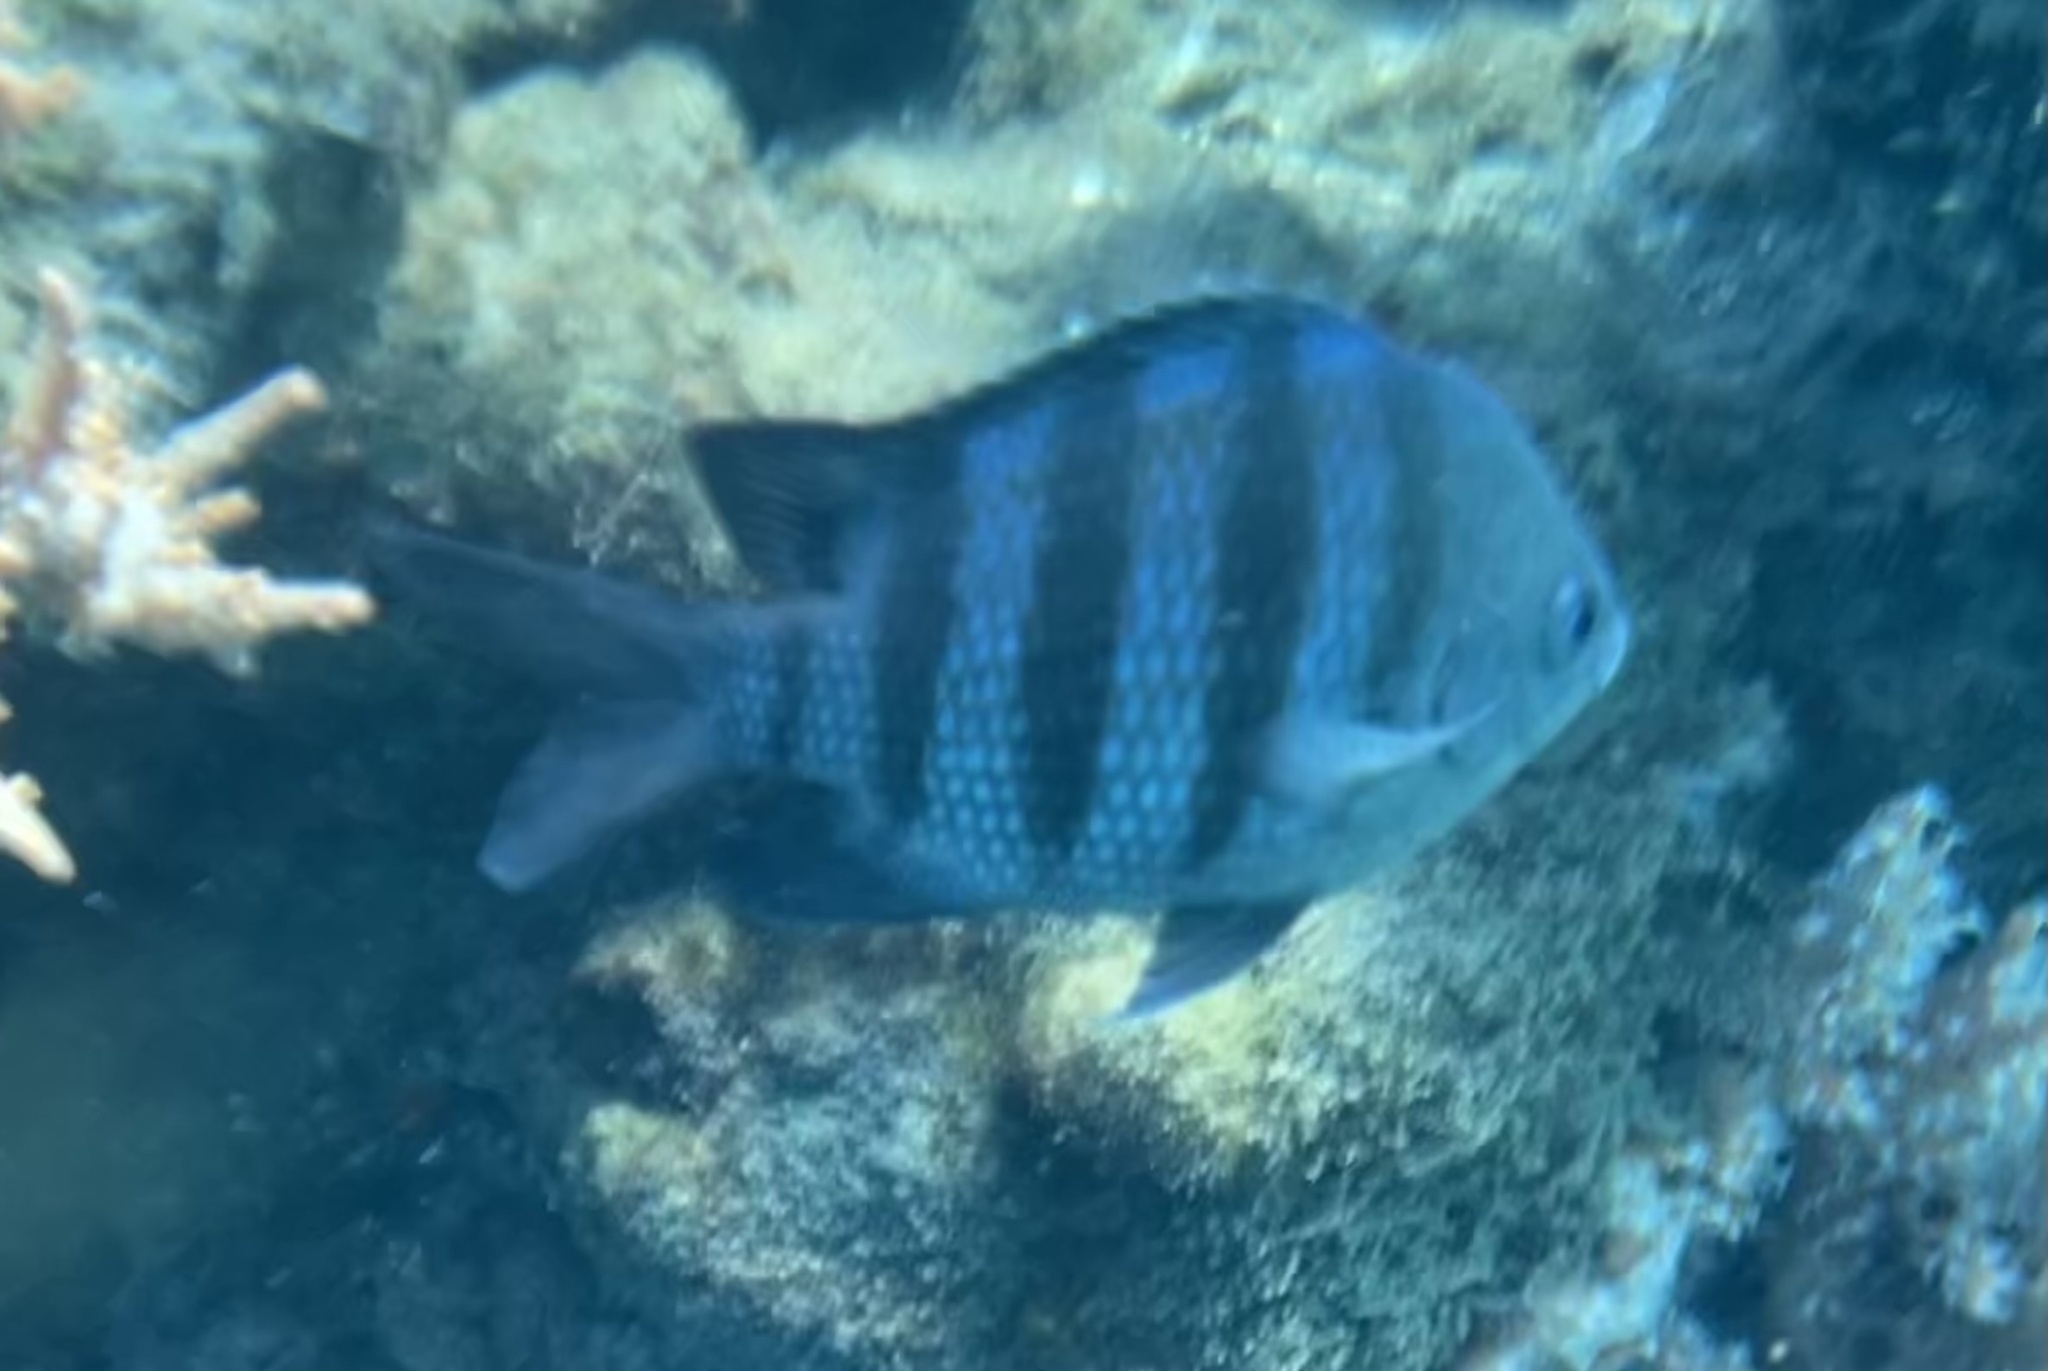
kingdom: Animalia
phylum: Chordata
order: Perciformes
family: Pomacentridae
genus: Abudefduf
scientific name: Abudefduf saxatilis
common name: Sergeant major
